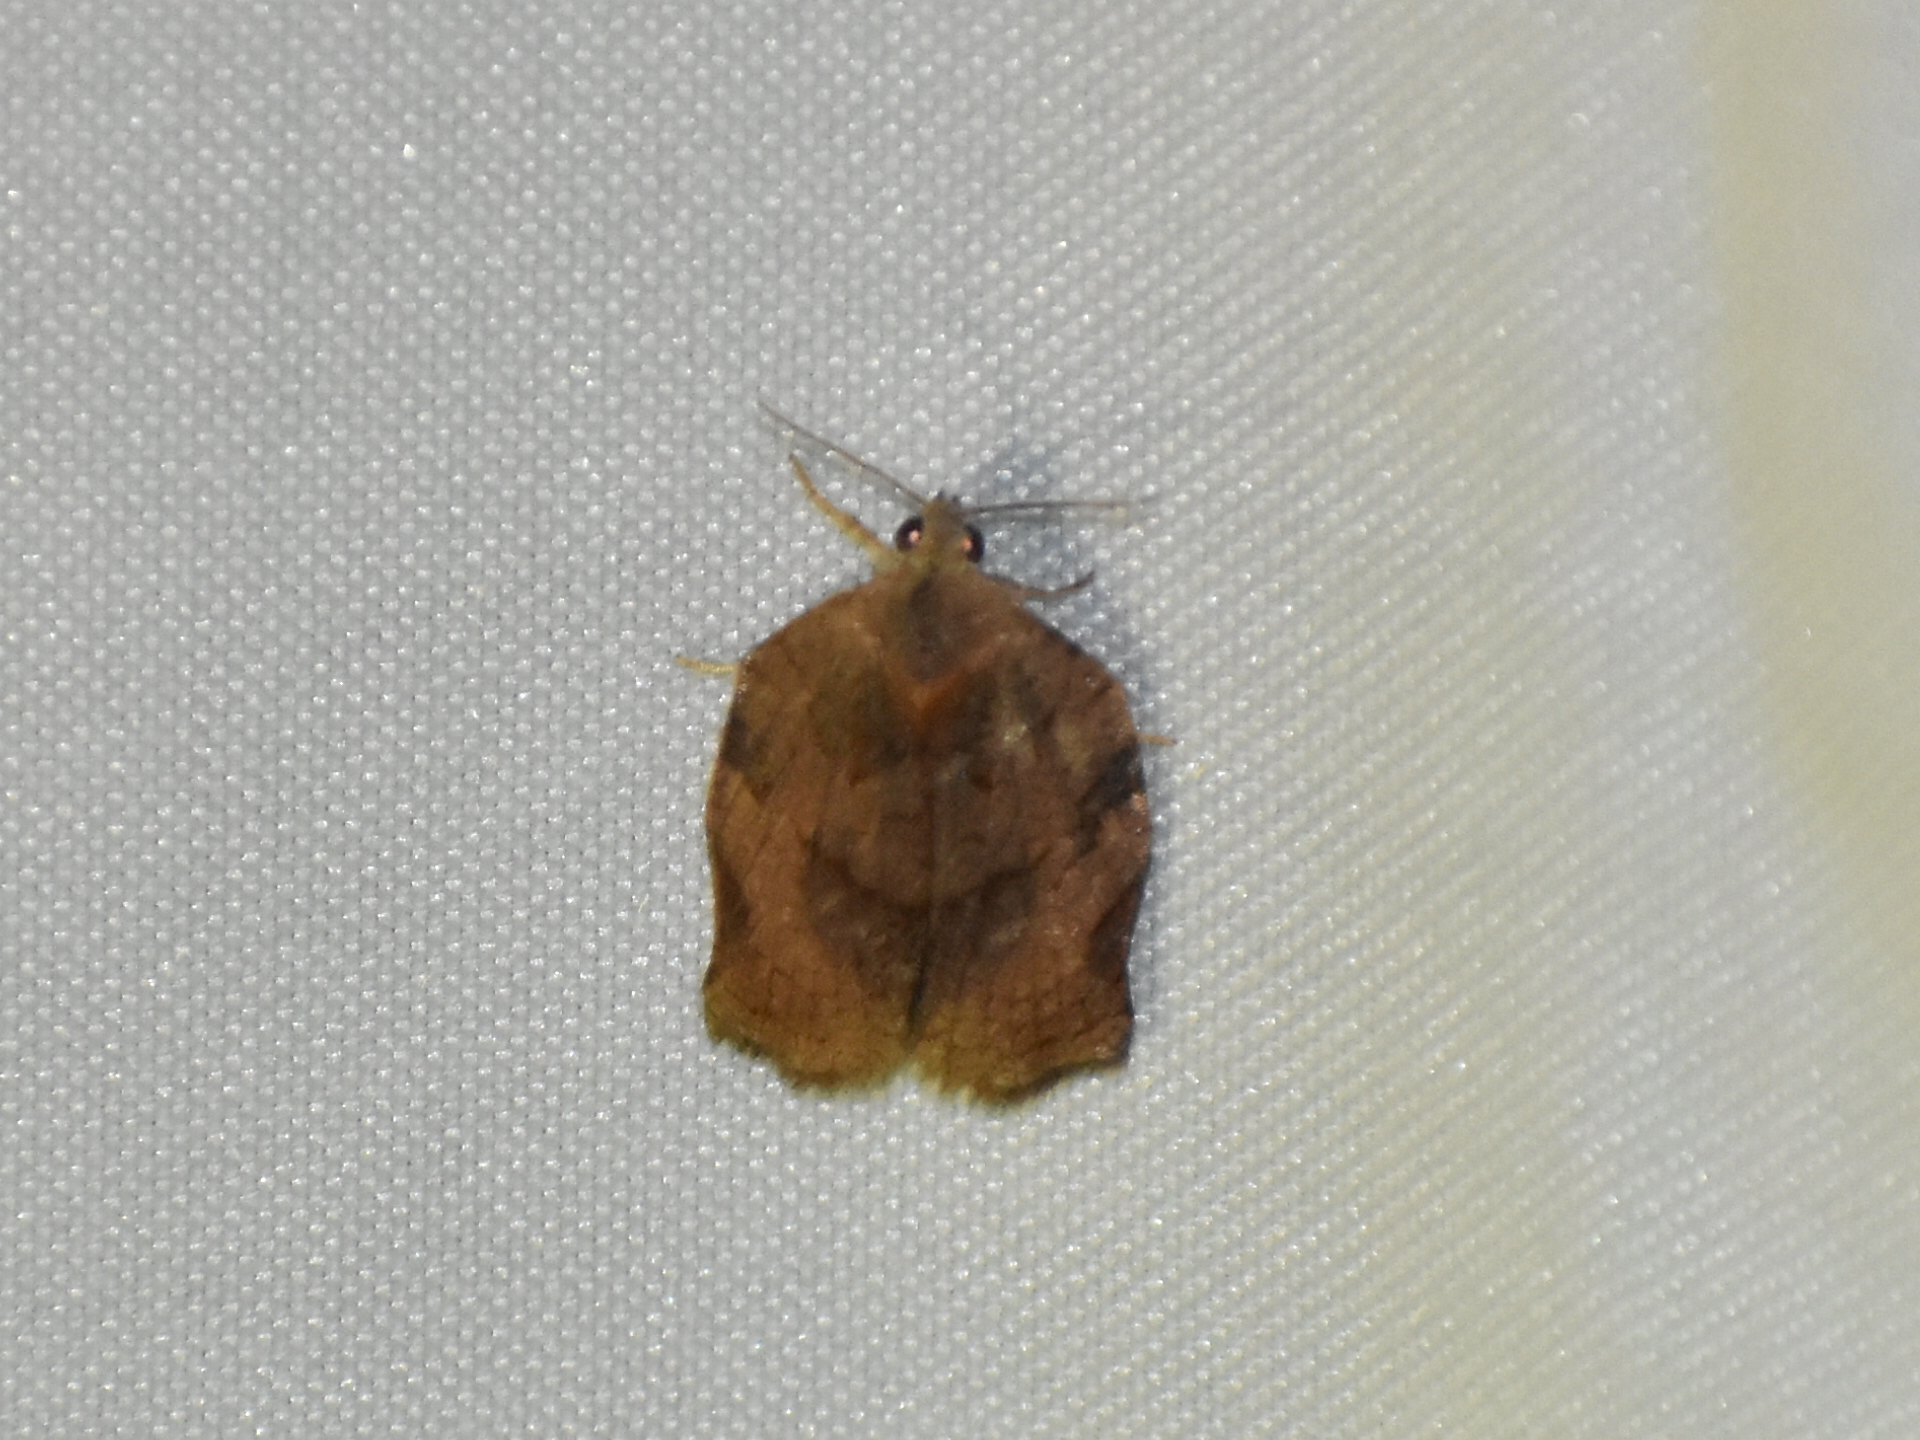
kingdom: Animalia
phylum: Arthropoda
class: Insecta
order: Lepidoptera
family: Tortricidae
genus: Archips
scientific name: Archips purpurana
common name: Omnivorous leafroller
